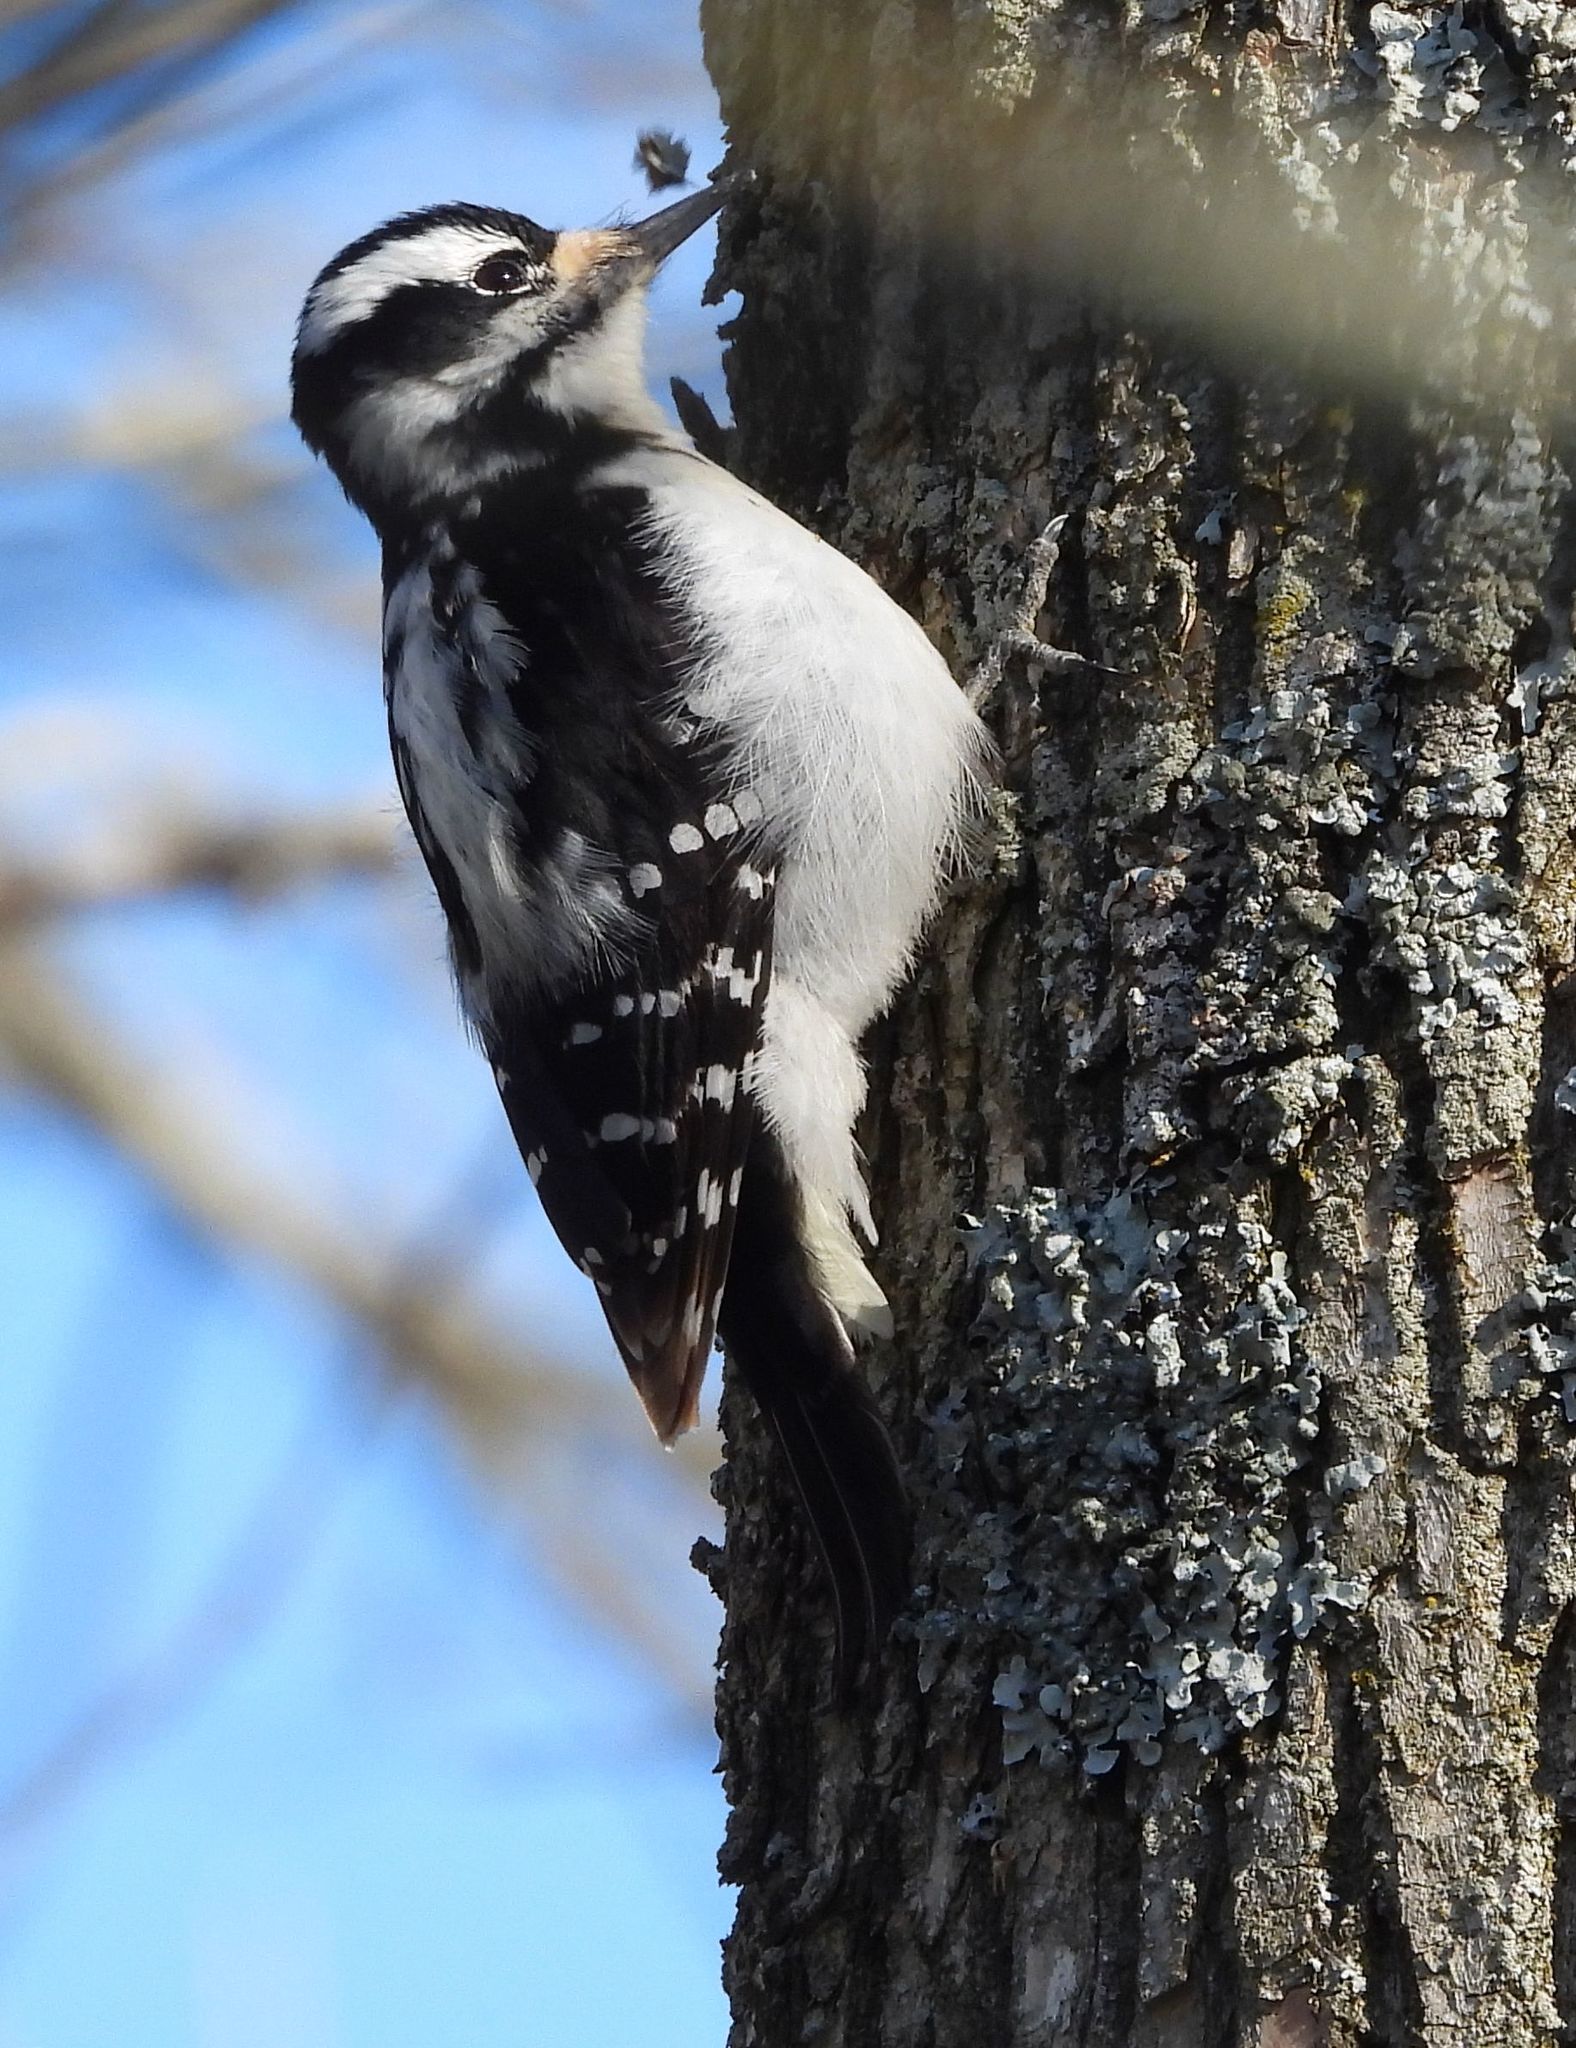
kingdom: Animalia
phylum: Chordata
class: Aves
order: Piciformes
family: Picidae
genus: Leuconotopicus
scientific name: Leuconotopicus villosus
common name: Hairy woodpecker
